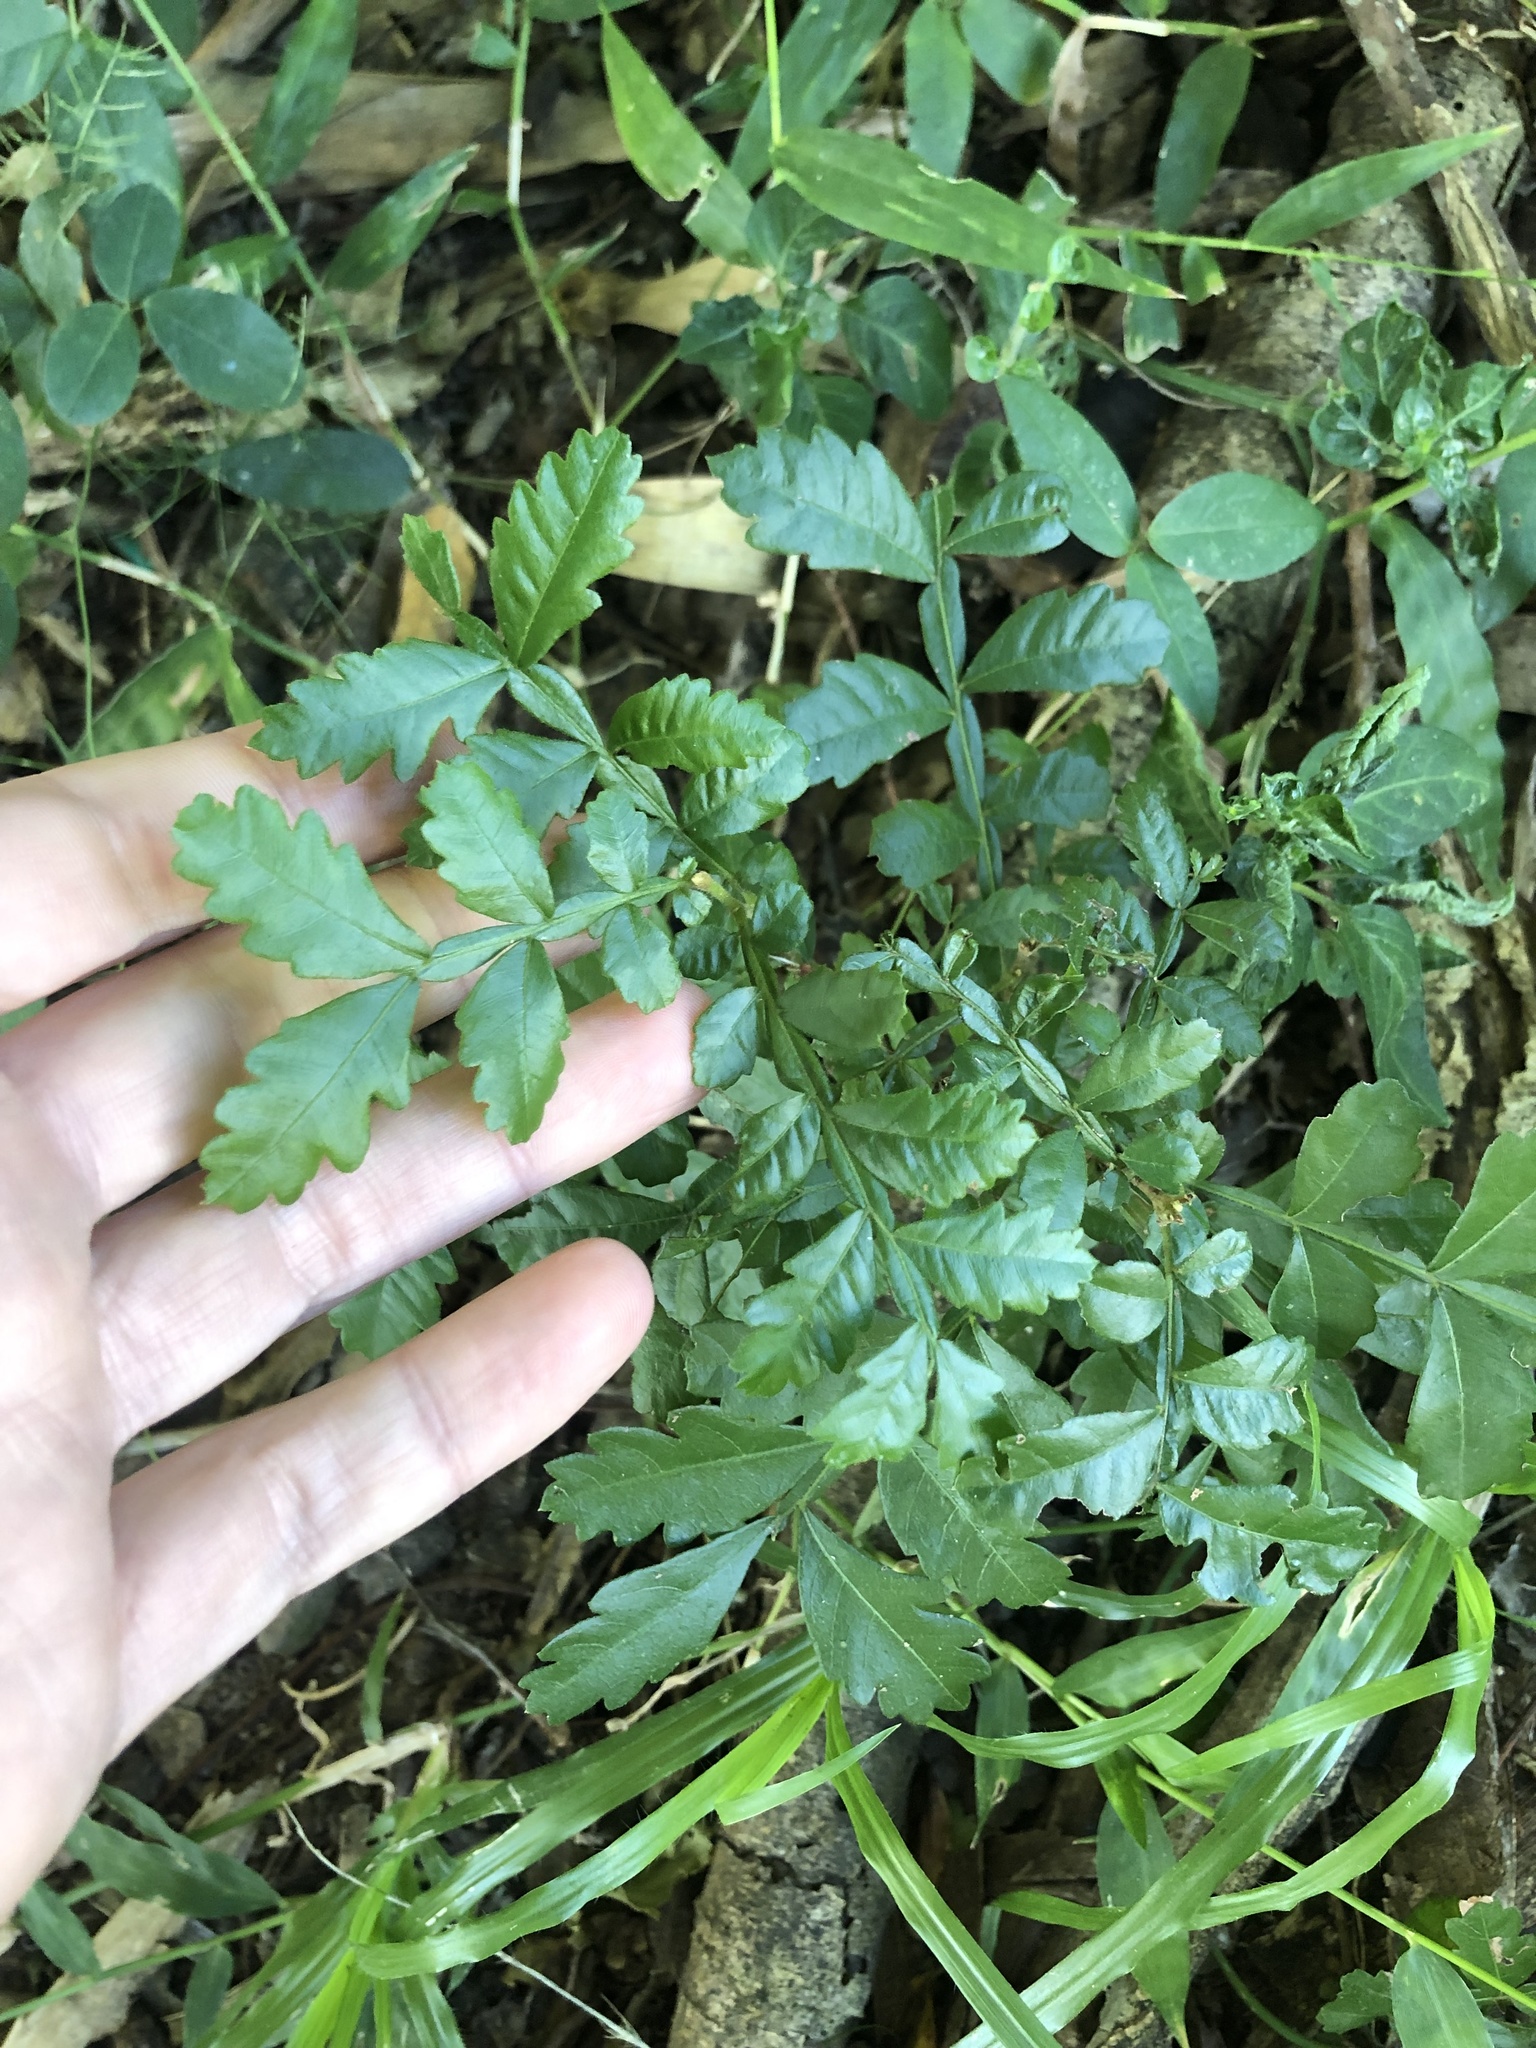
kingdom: Plantae
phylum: Tracheophyta
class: Magnoliopsida
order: Sapindales
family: Sapindaceae
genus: Hippobromus
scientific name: Hippobromus pauciflorus
